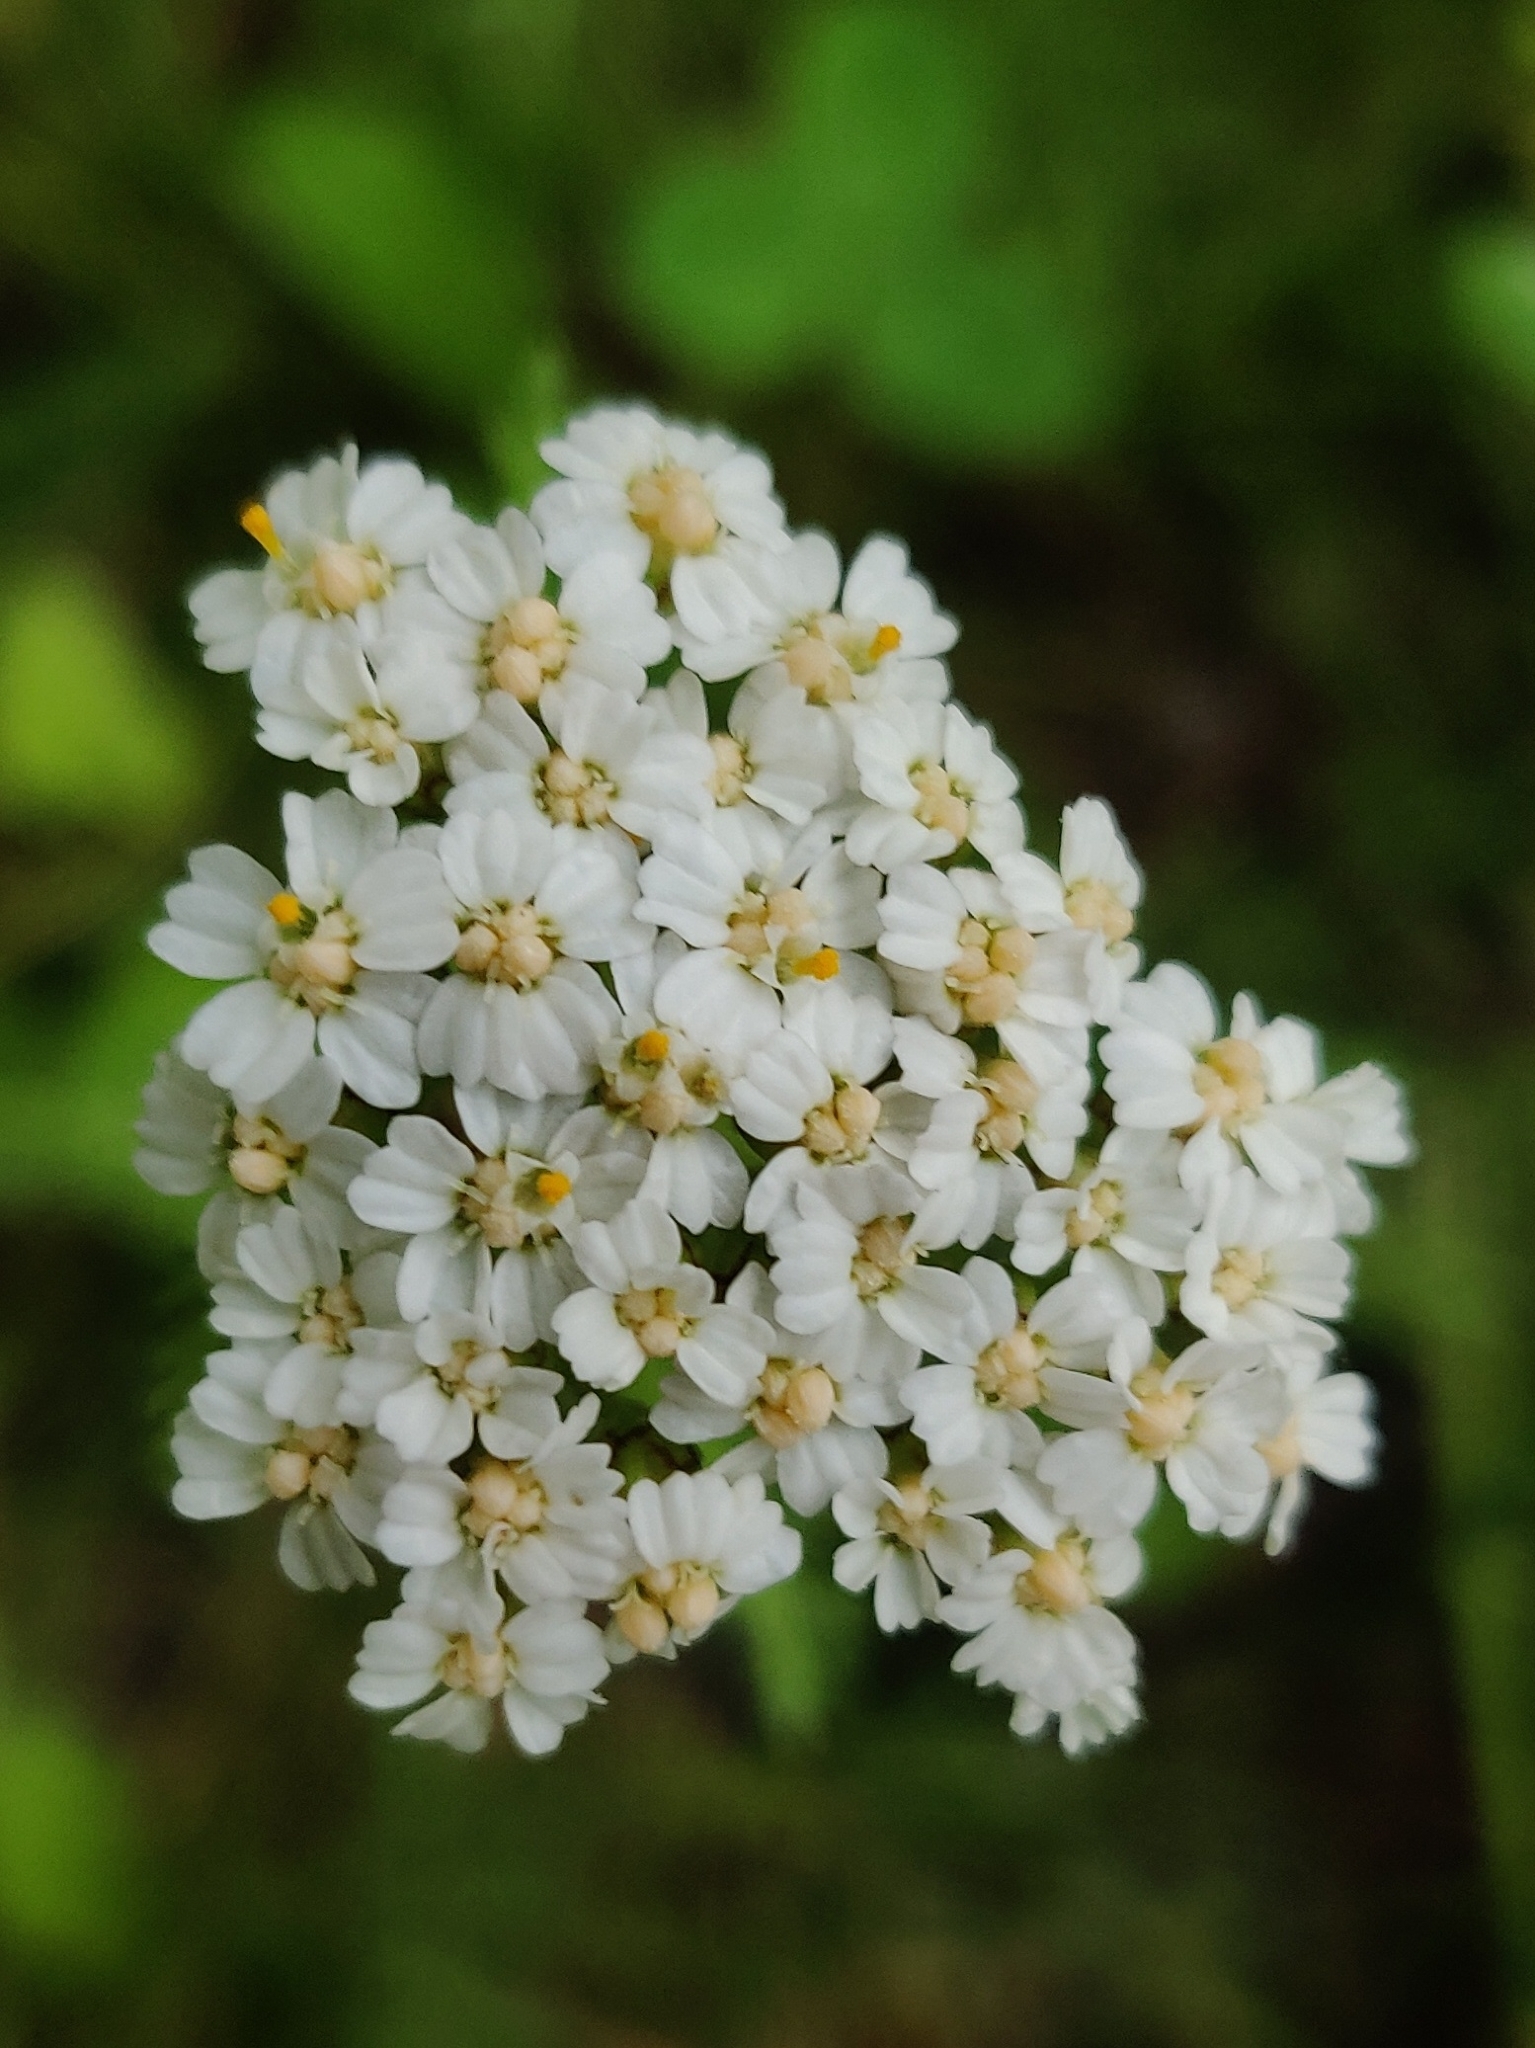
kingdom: Plantae
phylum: Tracheophyta
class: Magnoliopsida
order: Asterales
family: Asteraceae
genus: Achillea
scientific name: Achillea millefolium
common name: Yarrow
